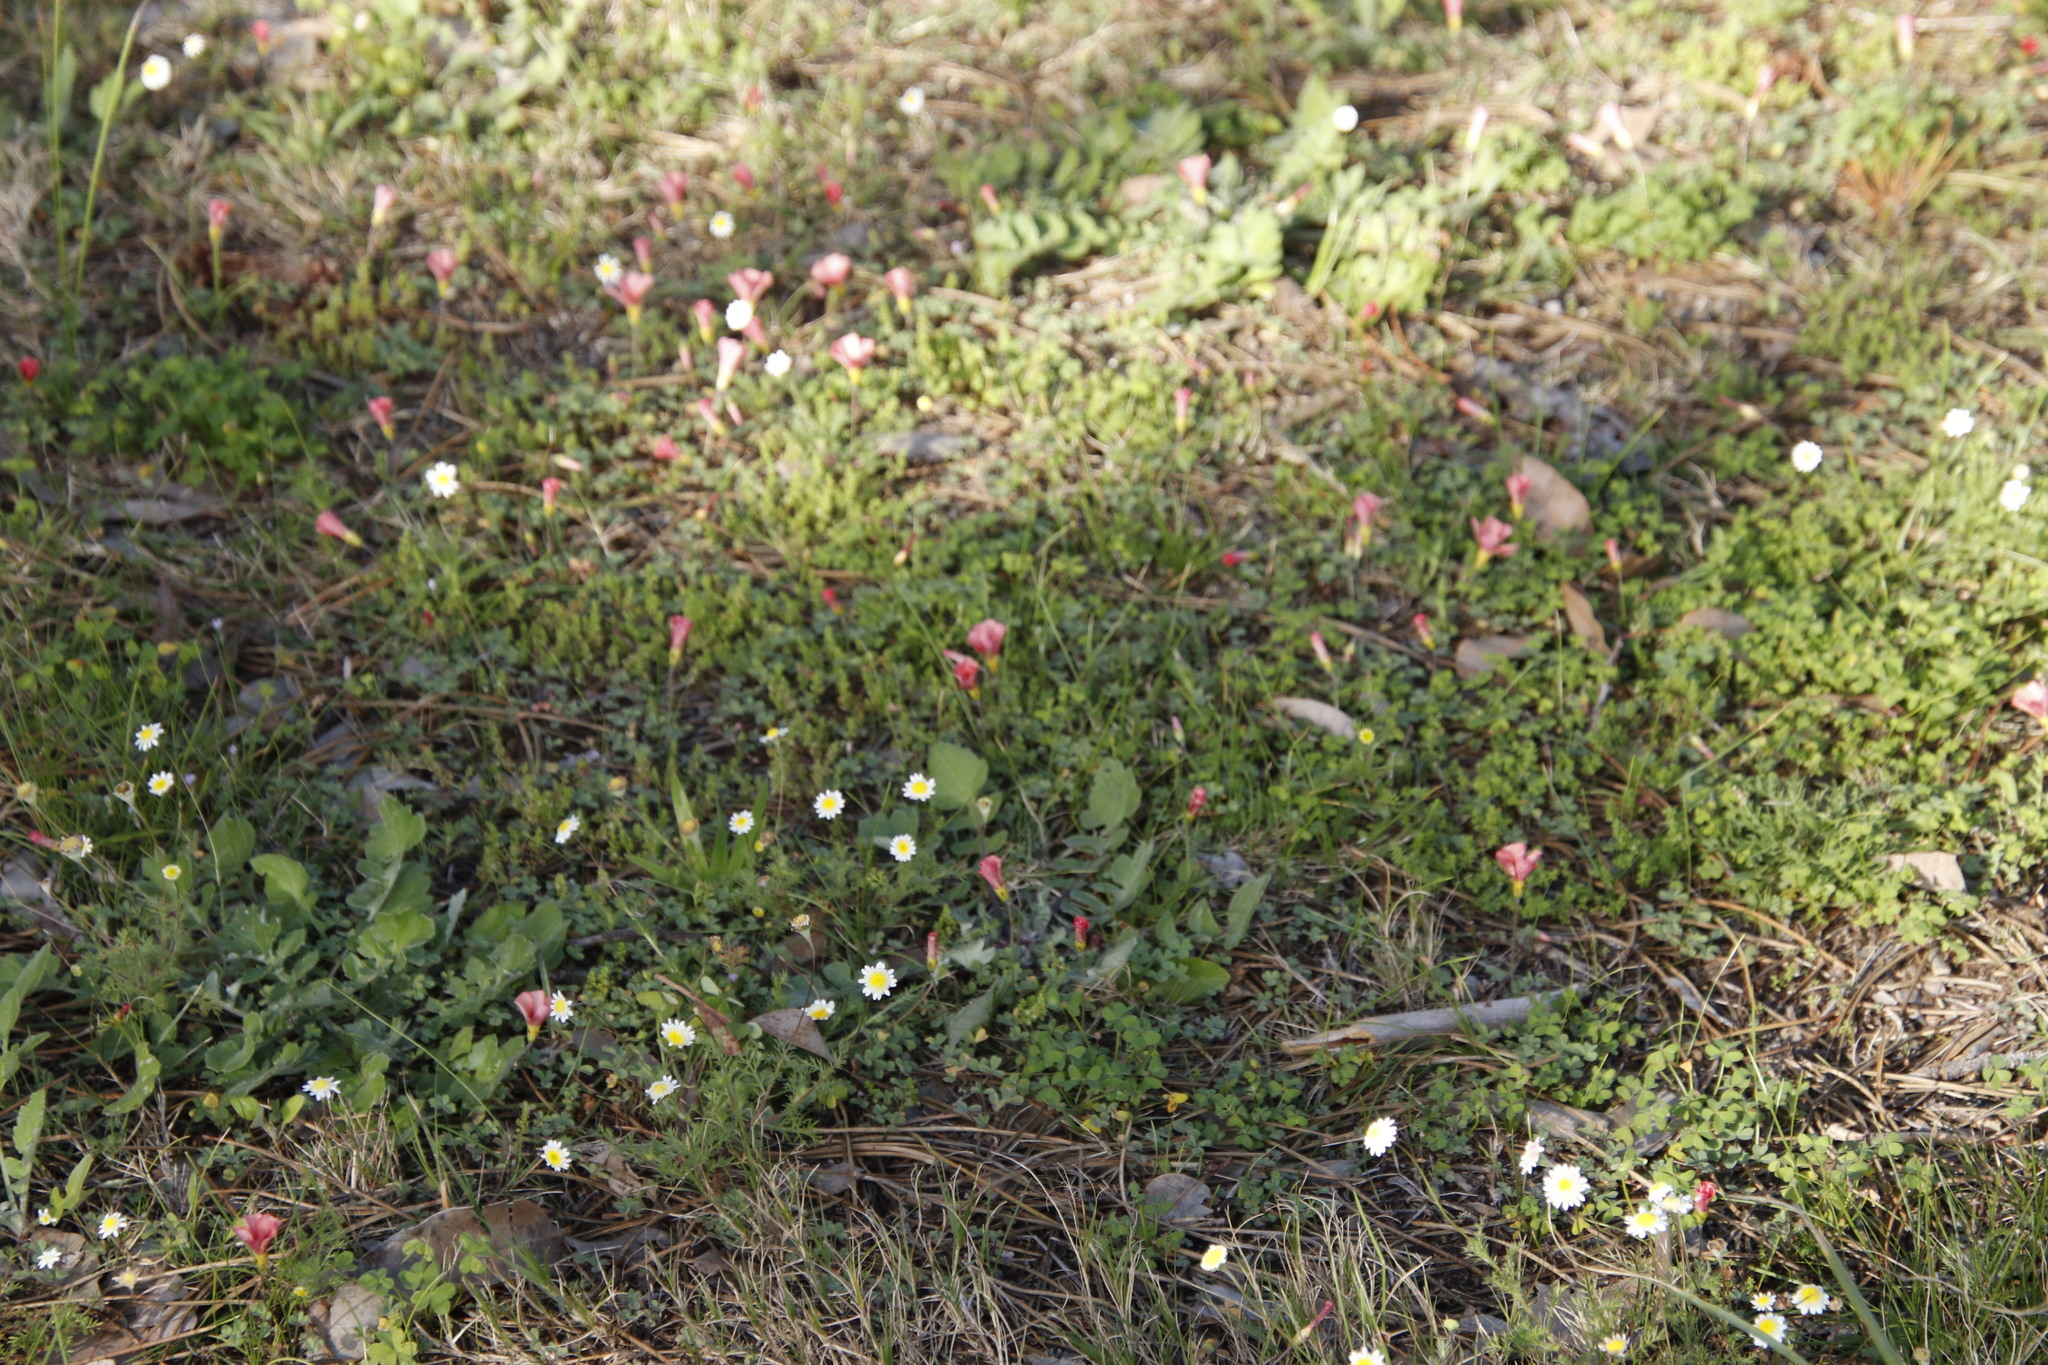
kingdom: Plantae
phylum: Tracheophyta
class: Magnoliopsida
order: Oxalidales
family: Oxalidaceae
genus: Oxalis
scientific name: Oxalis obtusa
